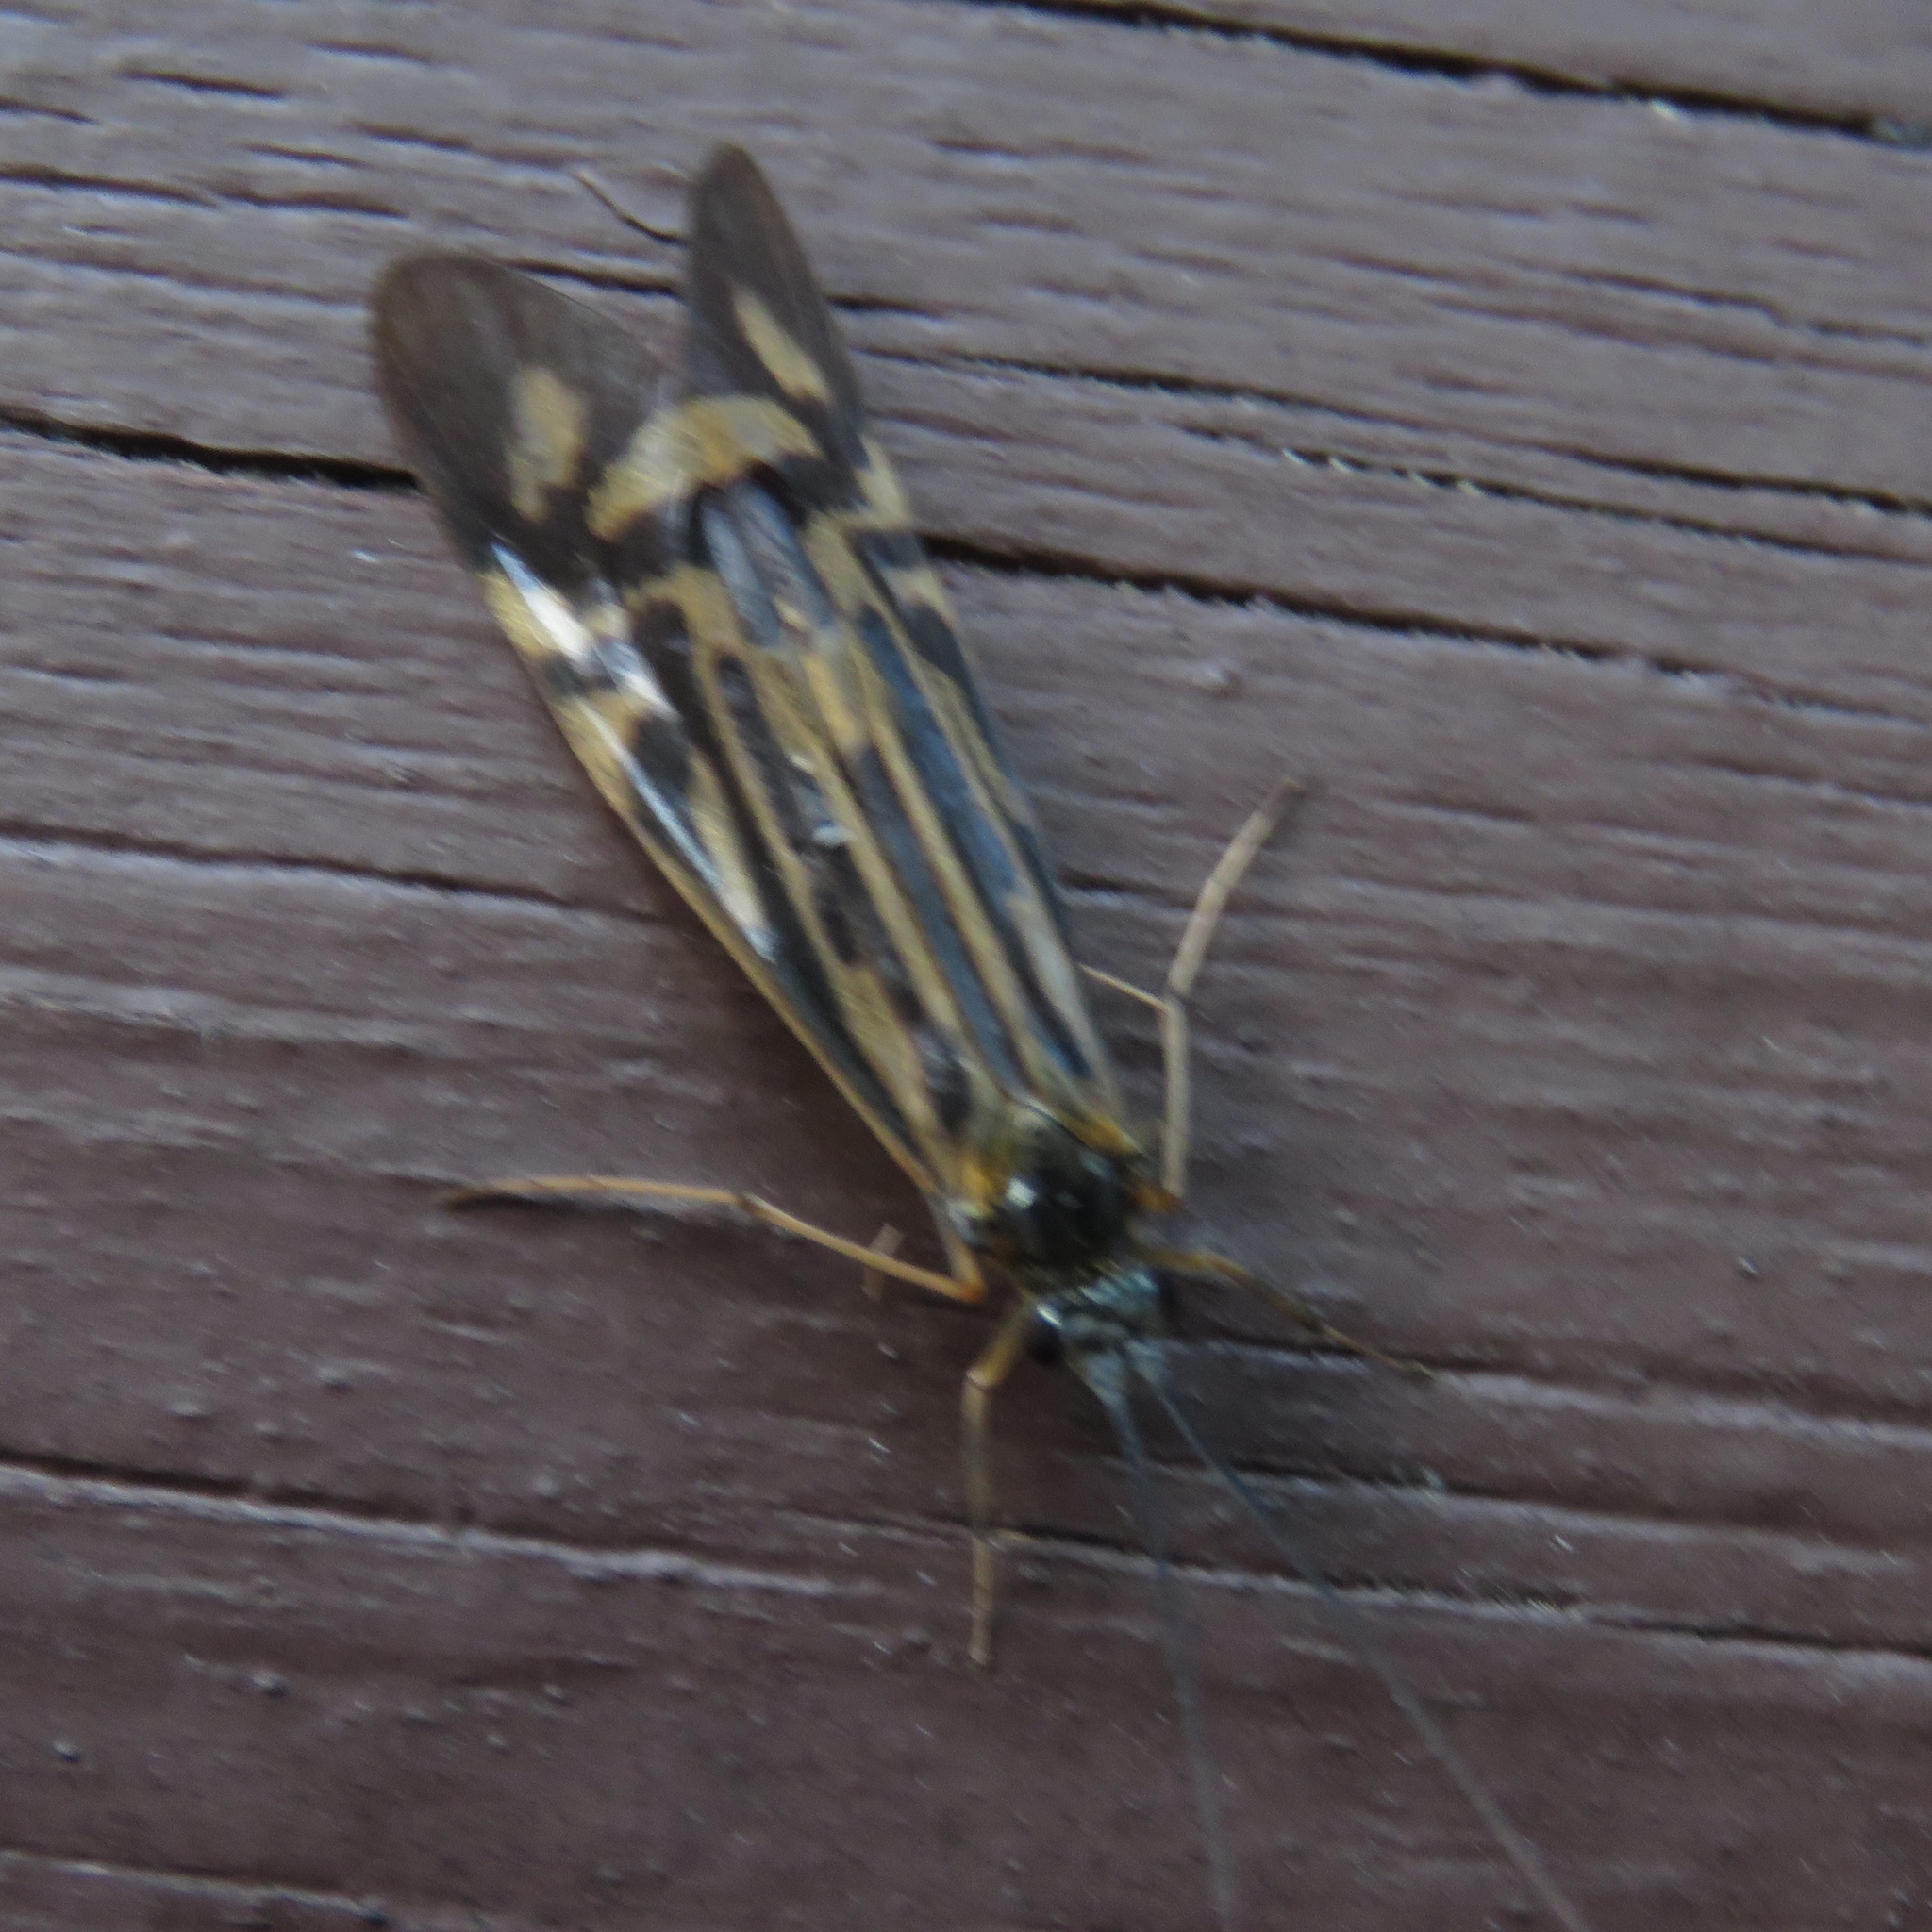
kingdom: Animalia
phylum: Arthropoda
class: Insecta
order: Trichoptera
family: Hydropsychidae
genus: Macrostemum
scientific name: Macrostemum zebratum
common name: Zebra caddisfly
